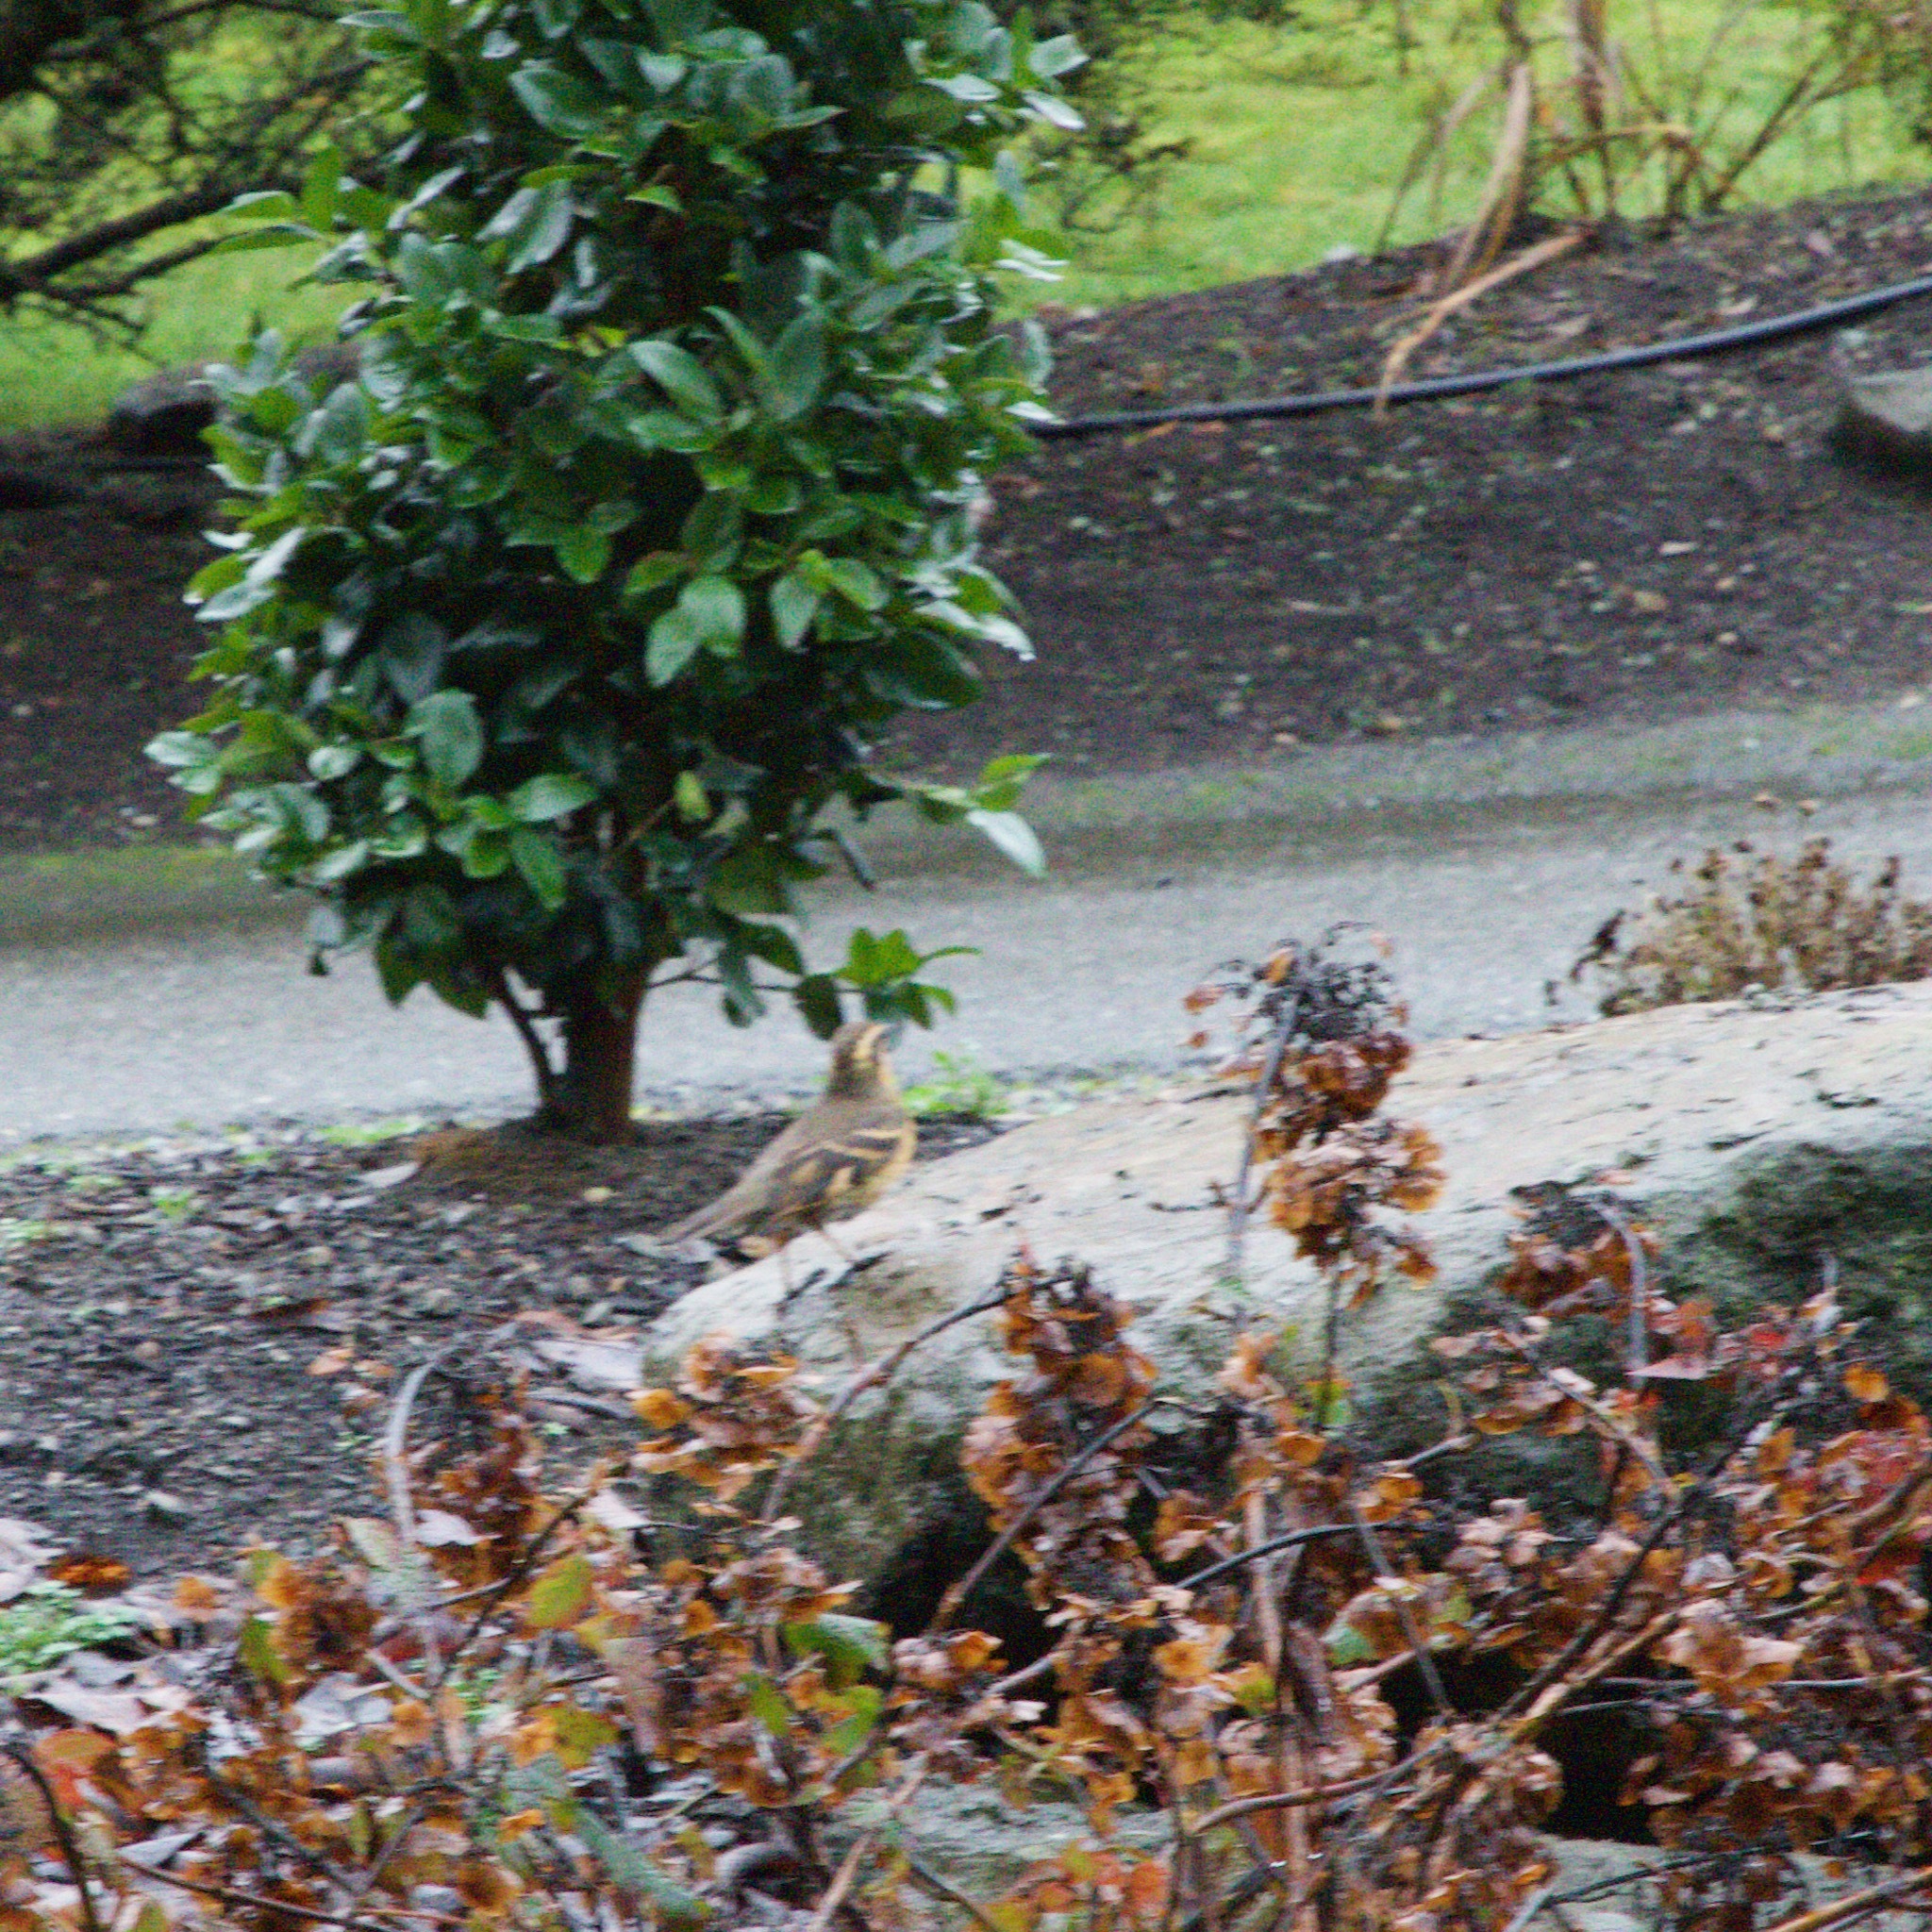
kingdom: Animalia
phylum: Chordata
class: Aves
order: Passeriformes
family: Turdidae
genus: Ixoreus
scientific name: Ixoreus naevius
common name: Varied thrush
